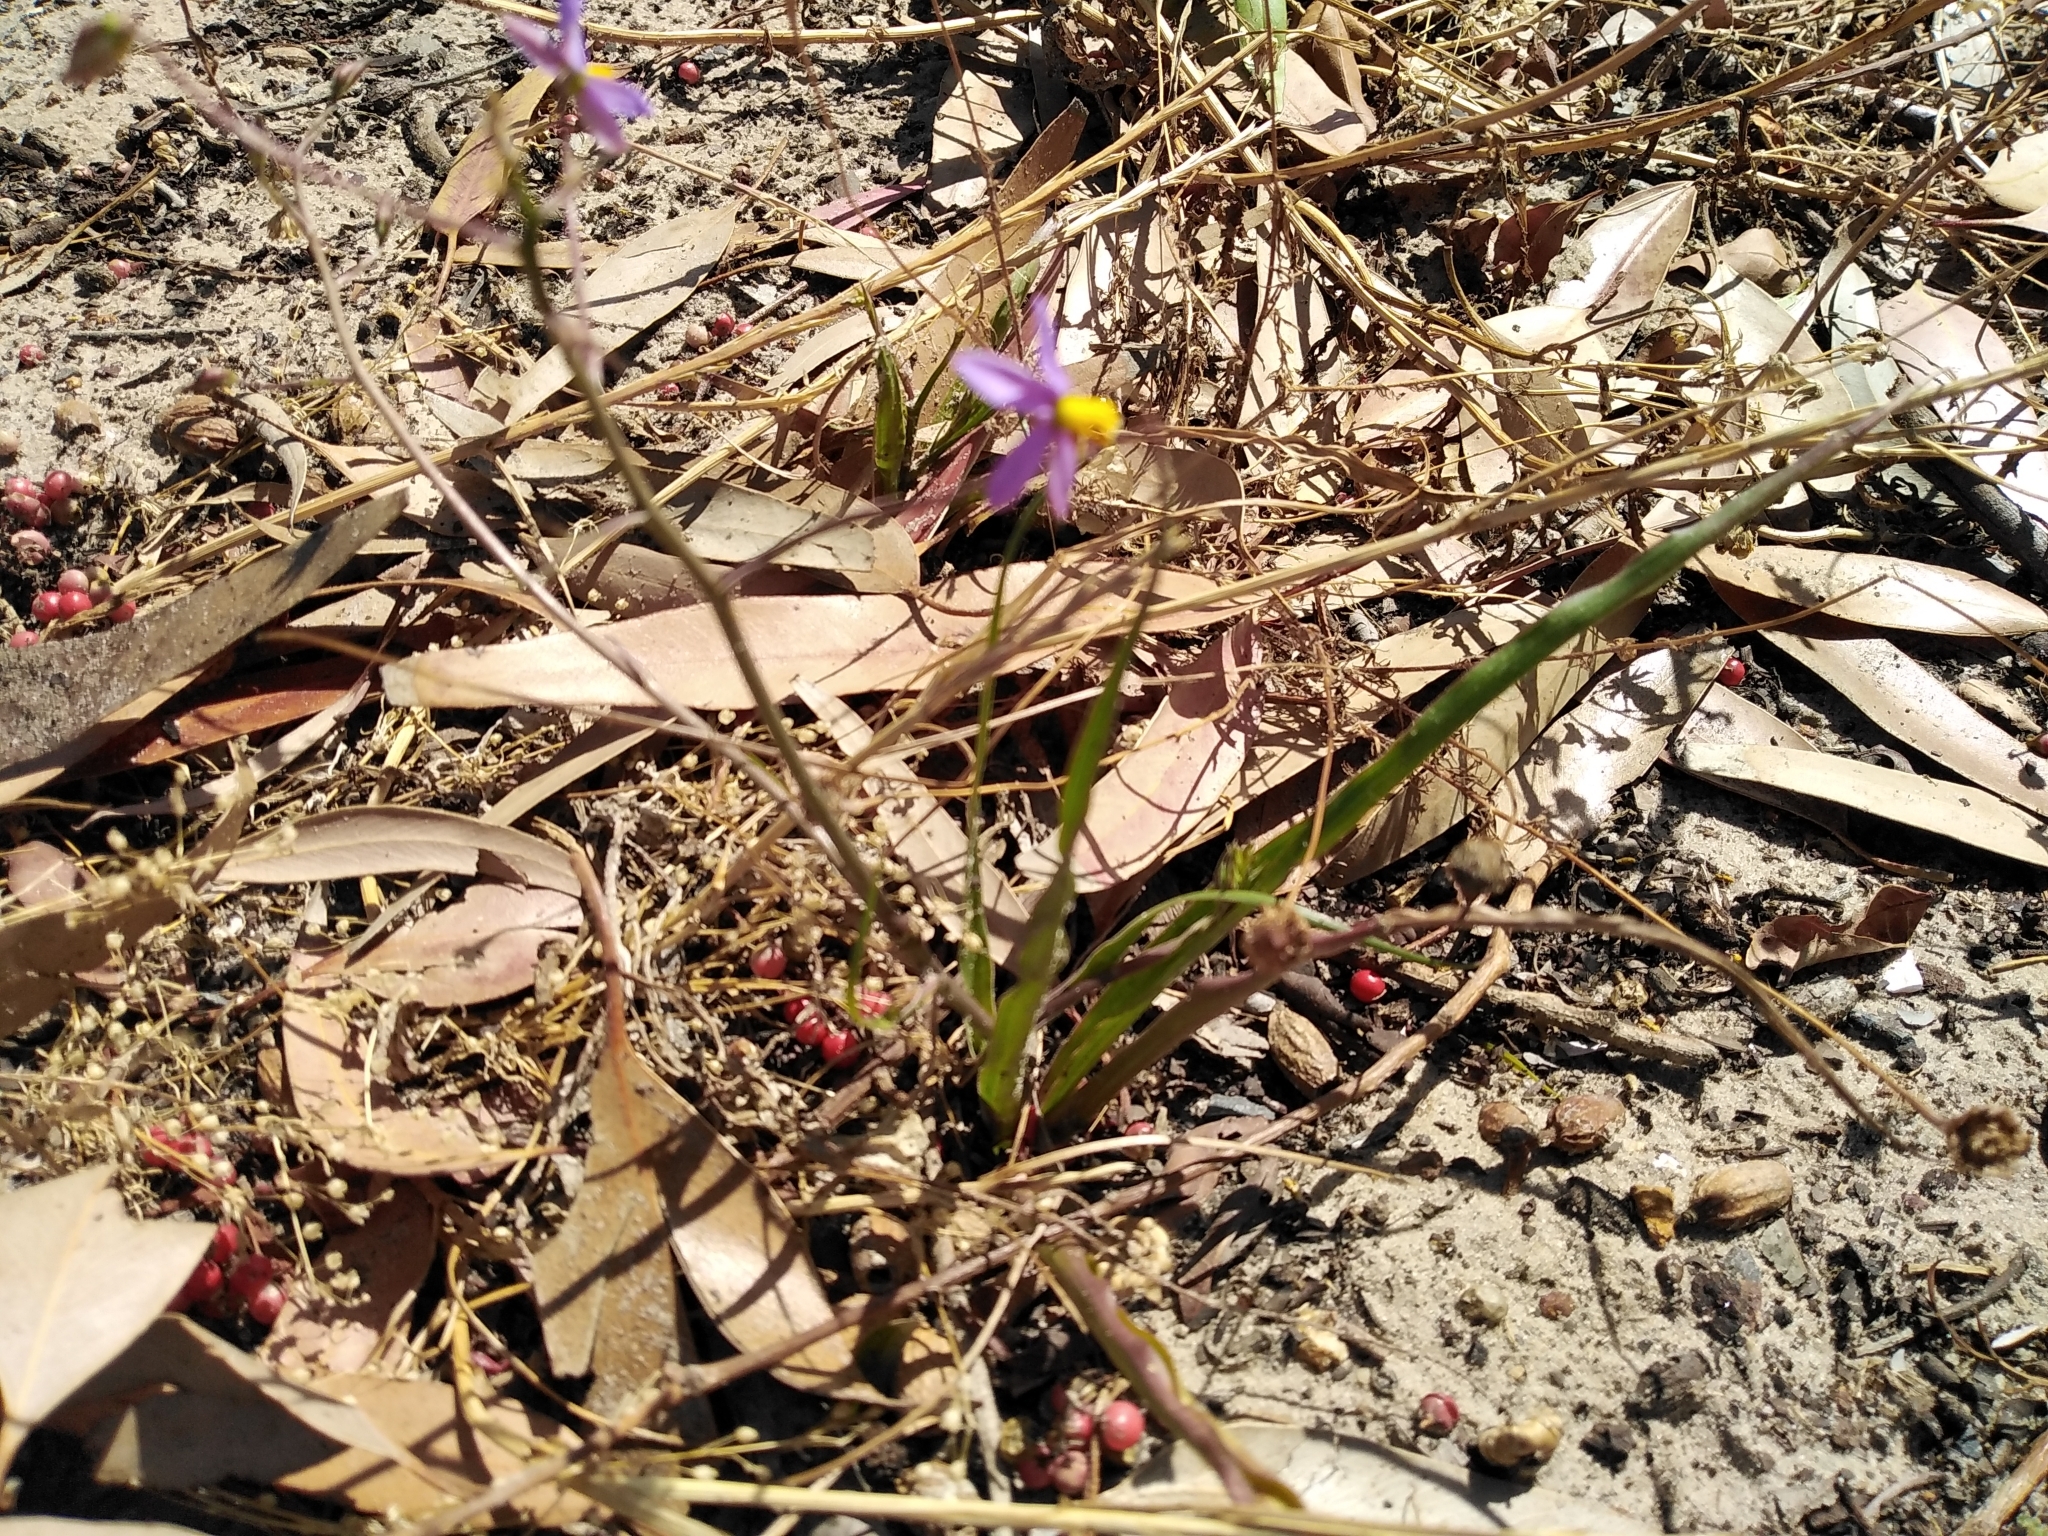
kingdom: Plantae
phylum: Tracheophyta
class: Liliopsida
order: Asparagales
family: Tecophilaeaceae
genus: Cyanella
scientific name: Cyanella hyacinthoides
